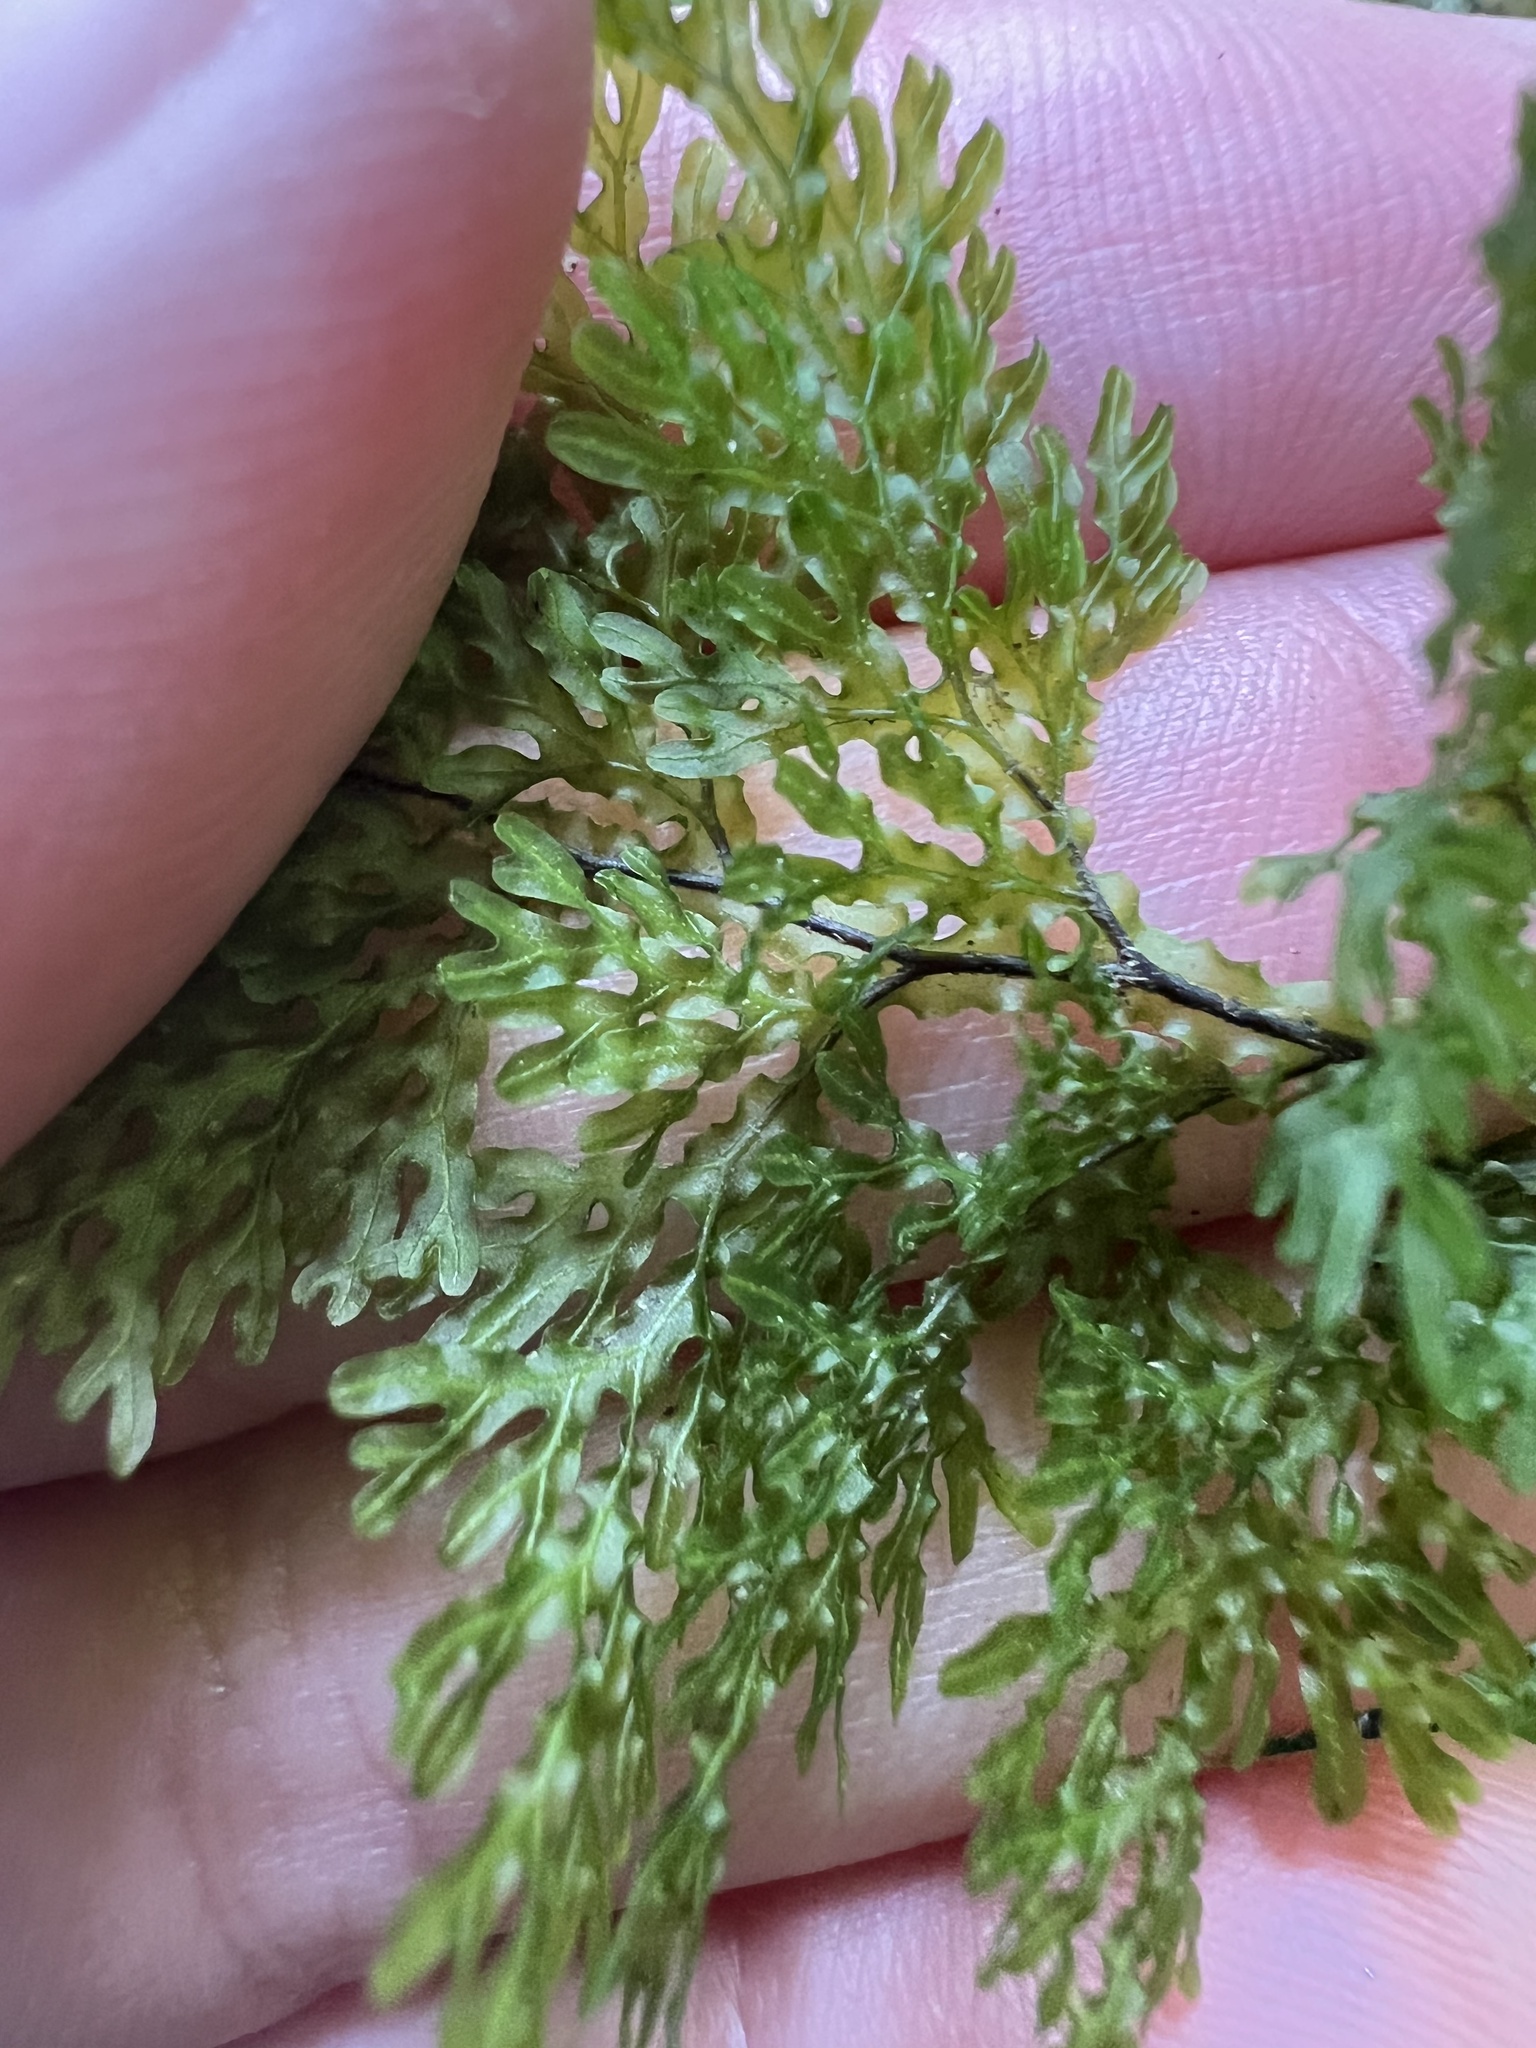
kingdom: Plantae
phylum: Tracheophyta
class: Polypodiopsida
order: Hymenophyllales
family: Hymenophyllaceae
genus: Hymenophyllum
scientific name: Hymenophyllum flexuosum
